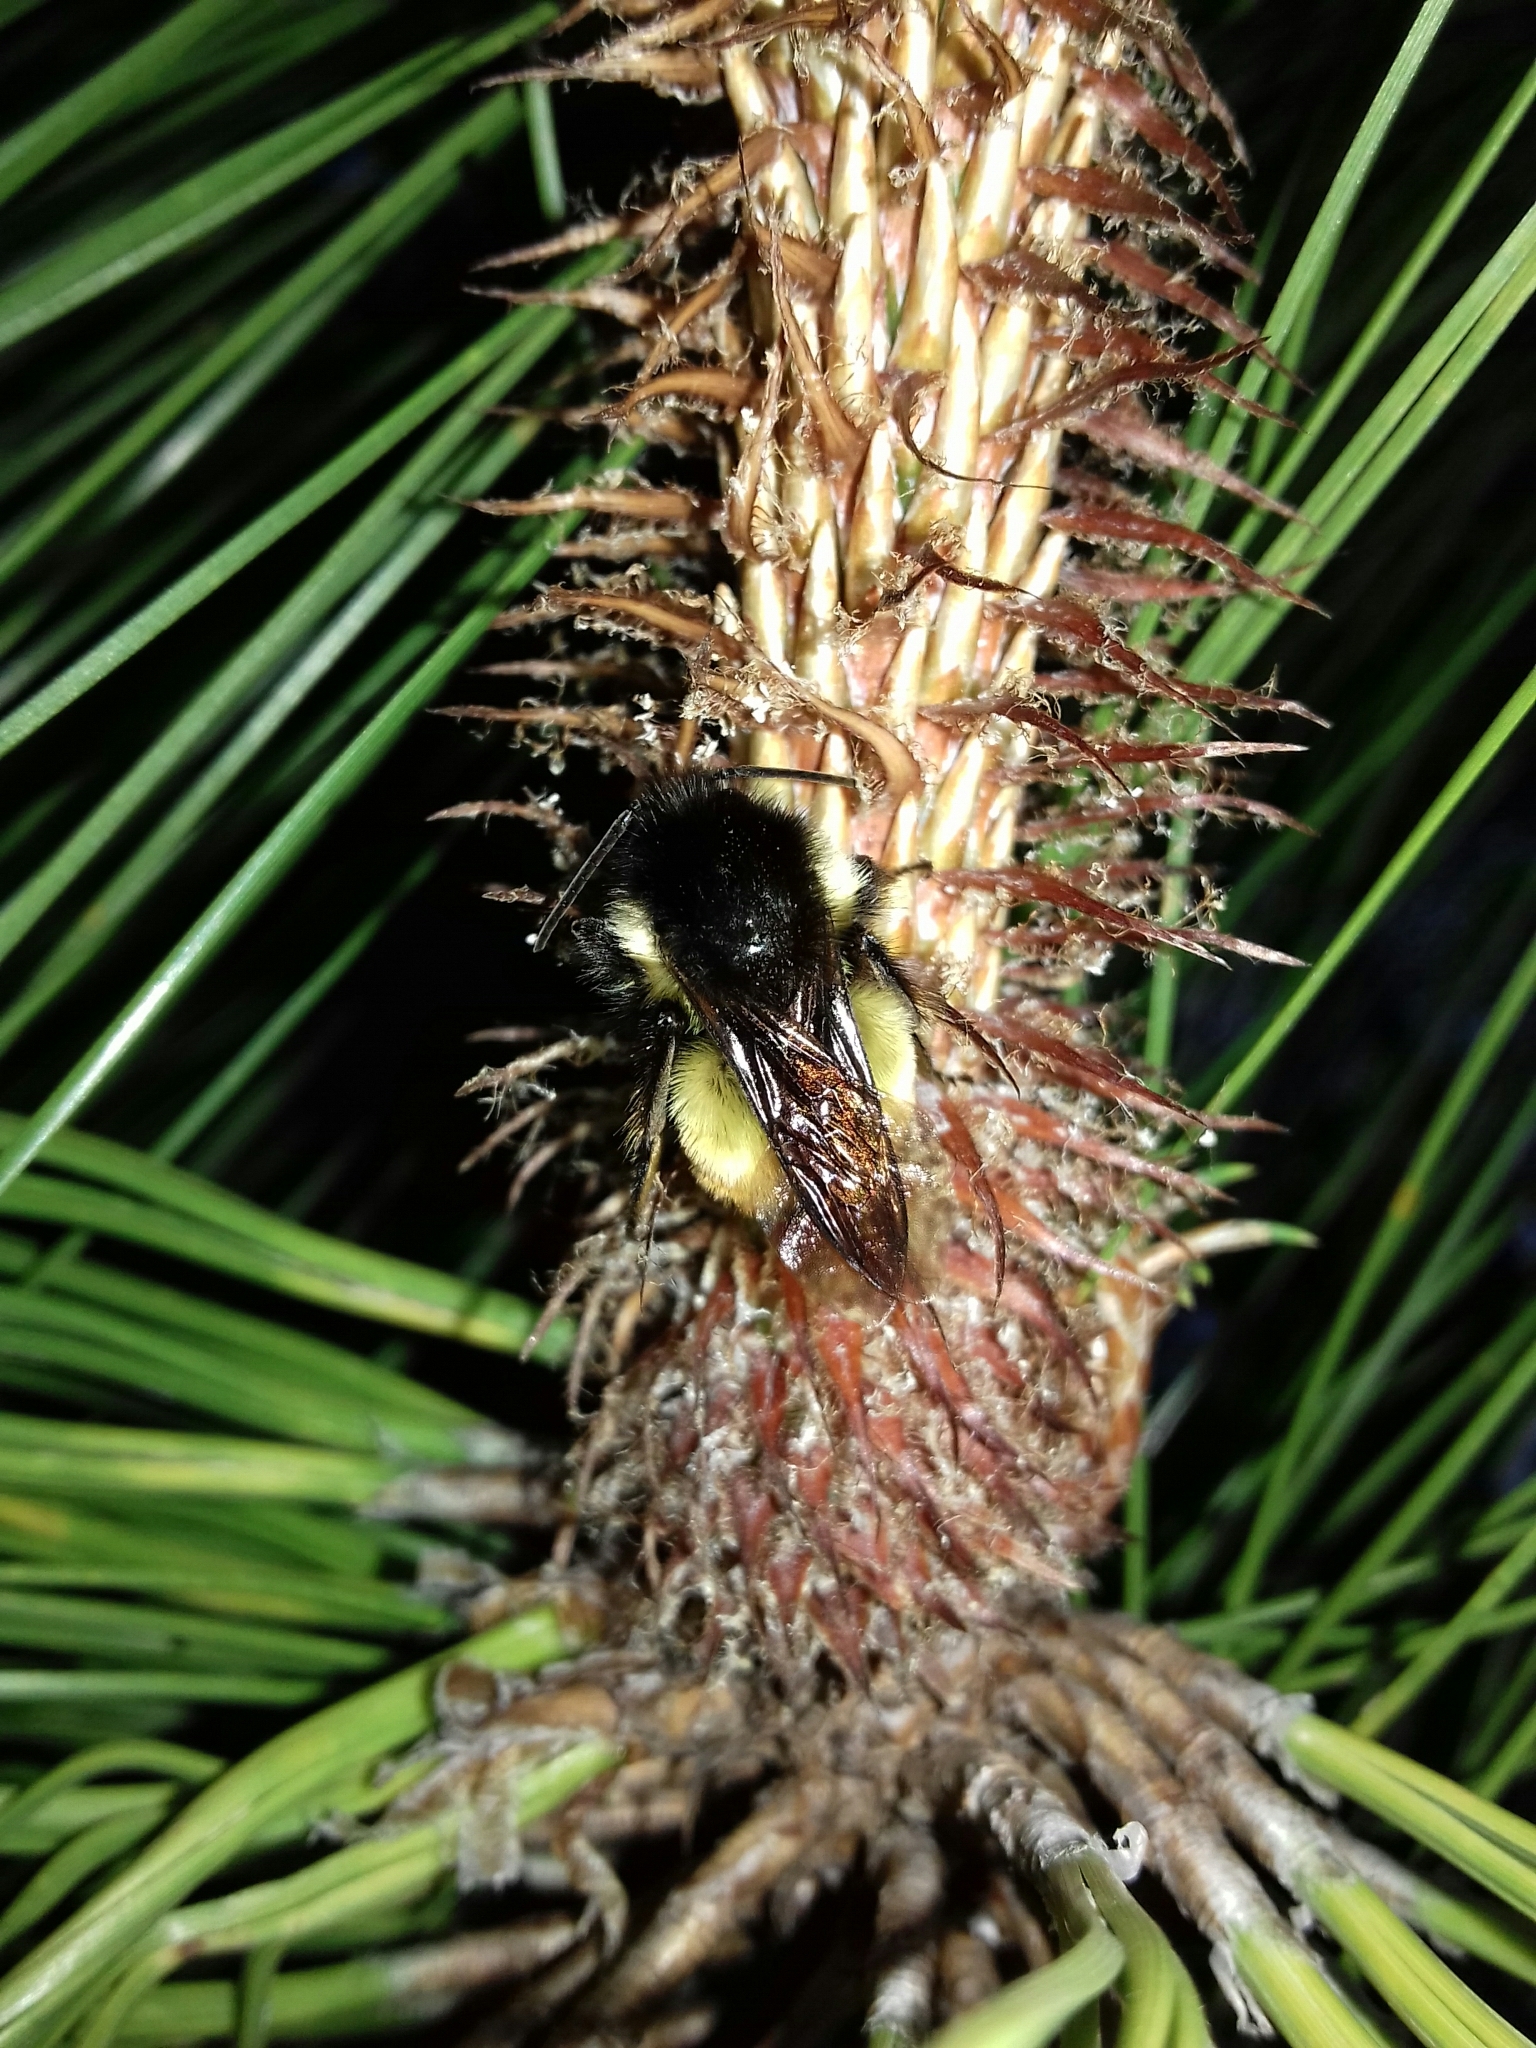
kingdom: Animalia
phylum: Arthropoda
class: Insecta
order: Hymenoptera
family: Apidae
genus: Bombus
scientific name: Bombus ephippiatus
